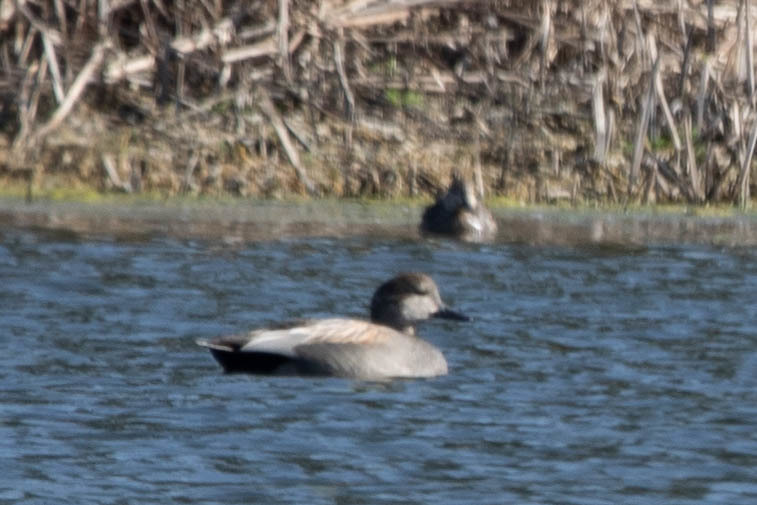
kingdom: Animalia
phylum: Chordata
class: Aves
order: Anseriformes
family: Anatidae
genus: Mareca
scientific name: Mareca strepera
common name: Gadwall
